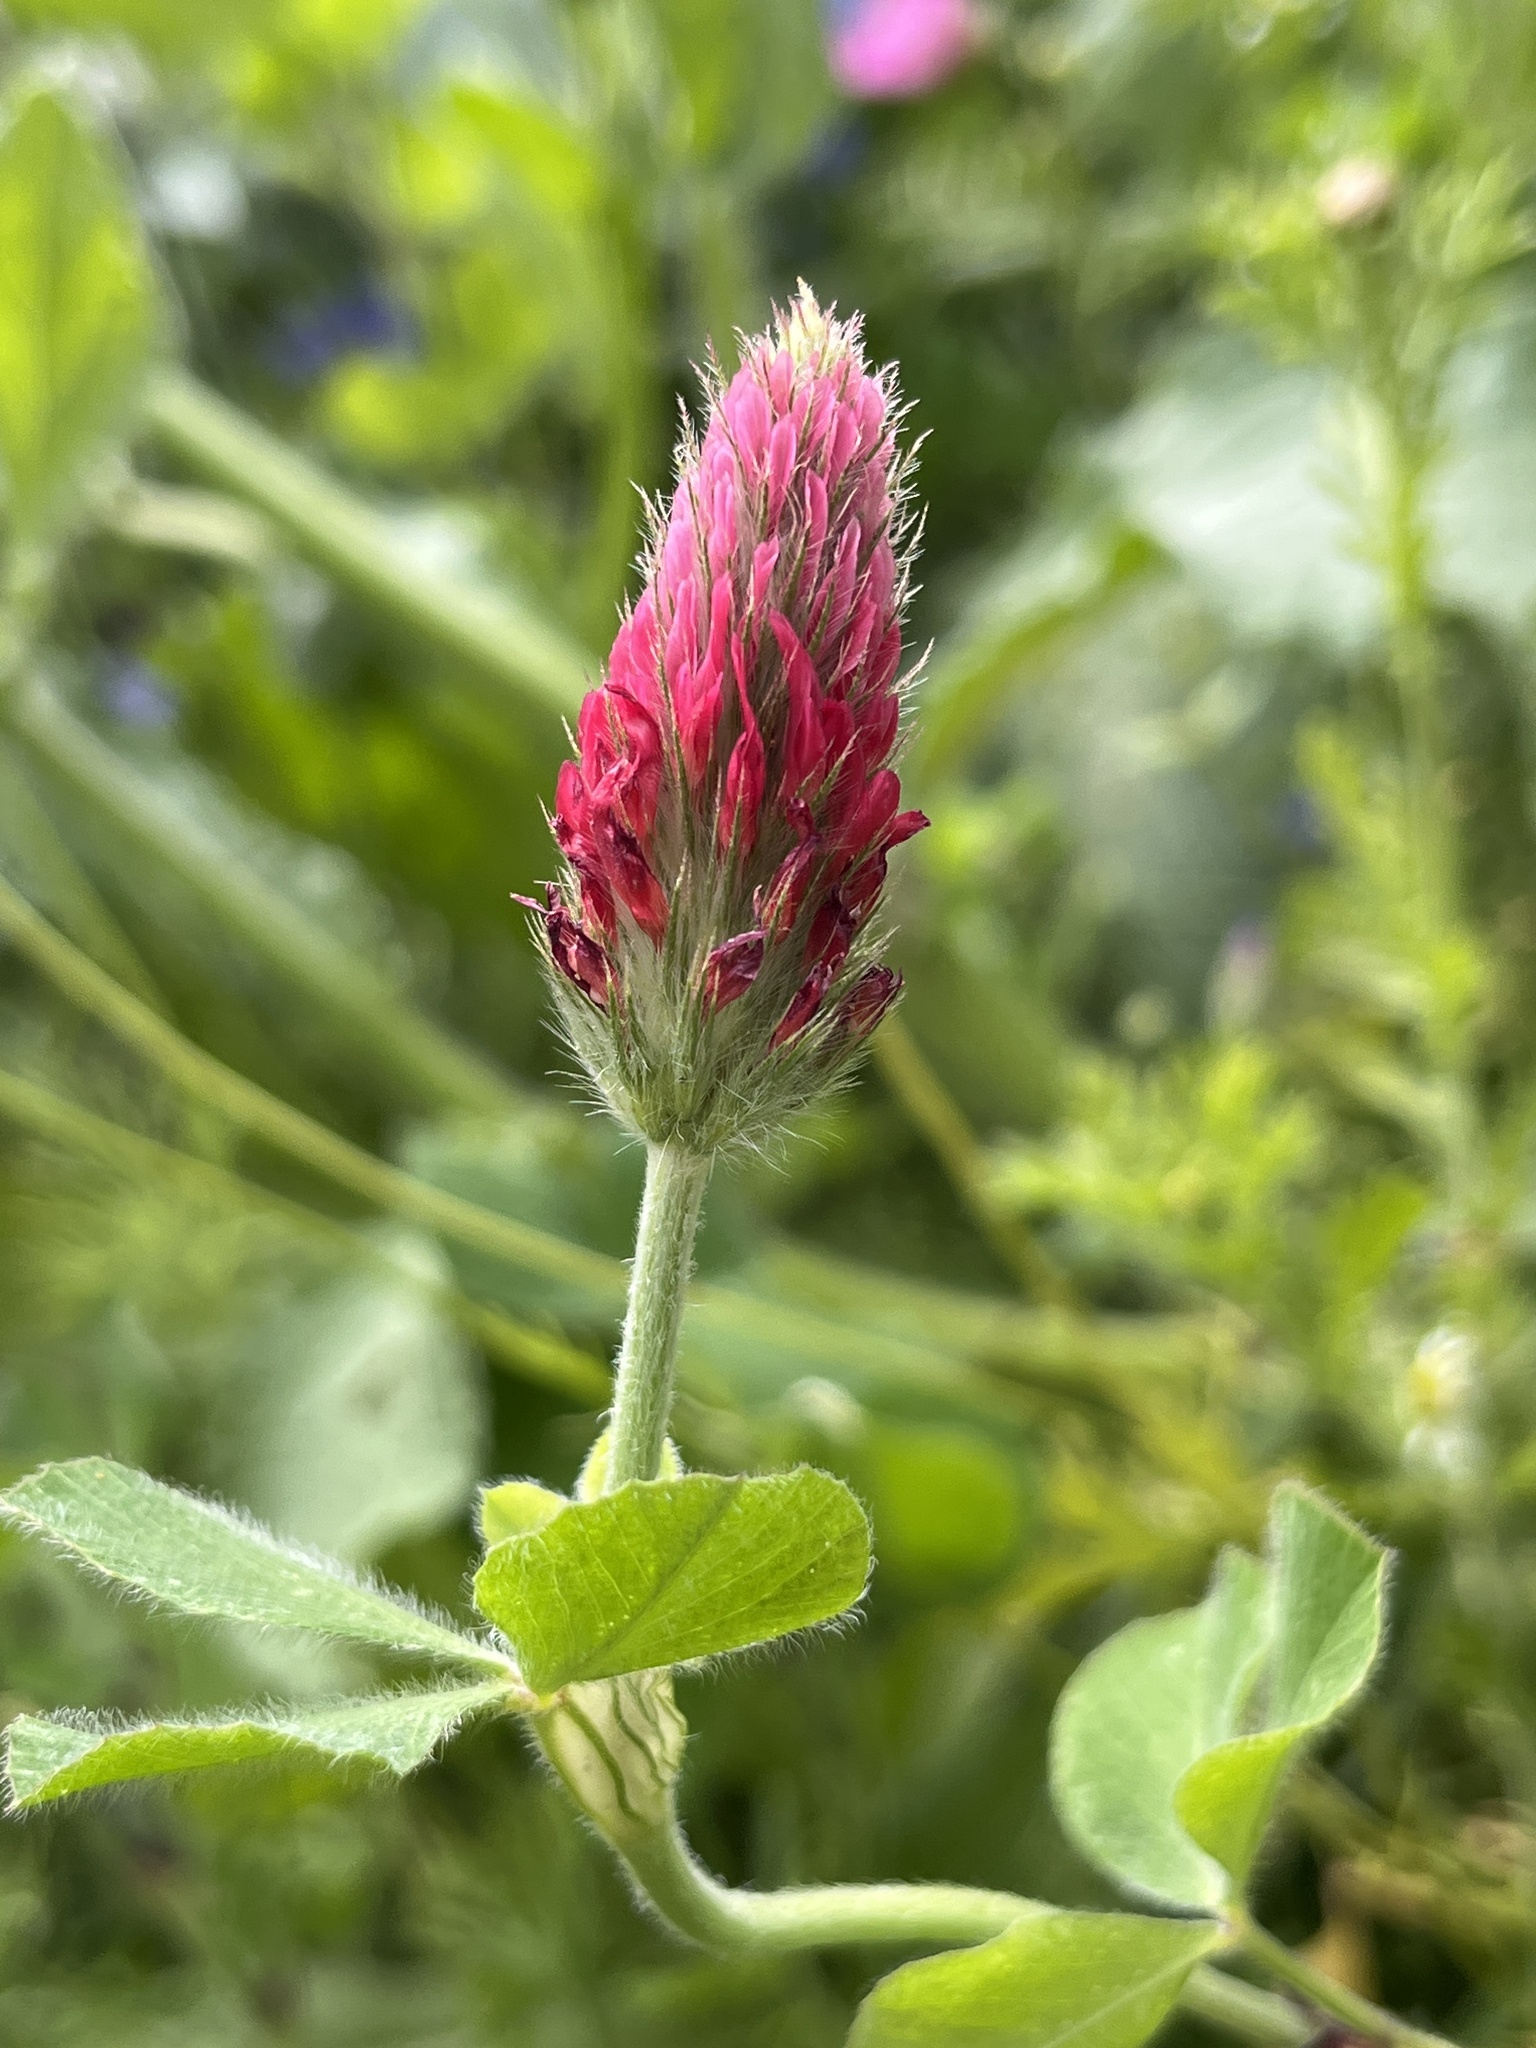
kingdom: Plantae
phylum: Tracheophyta
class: Magnoliopsida
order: Fabales
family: Fabaceae
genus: Trifolium
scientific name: Trifolium incarnatum
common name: Crimson clover
